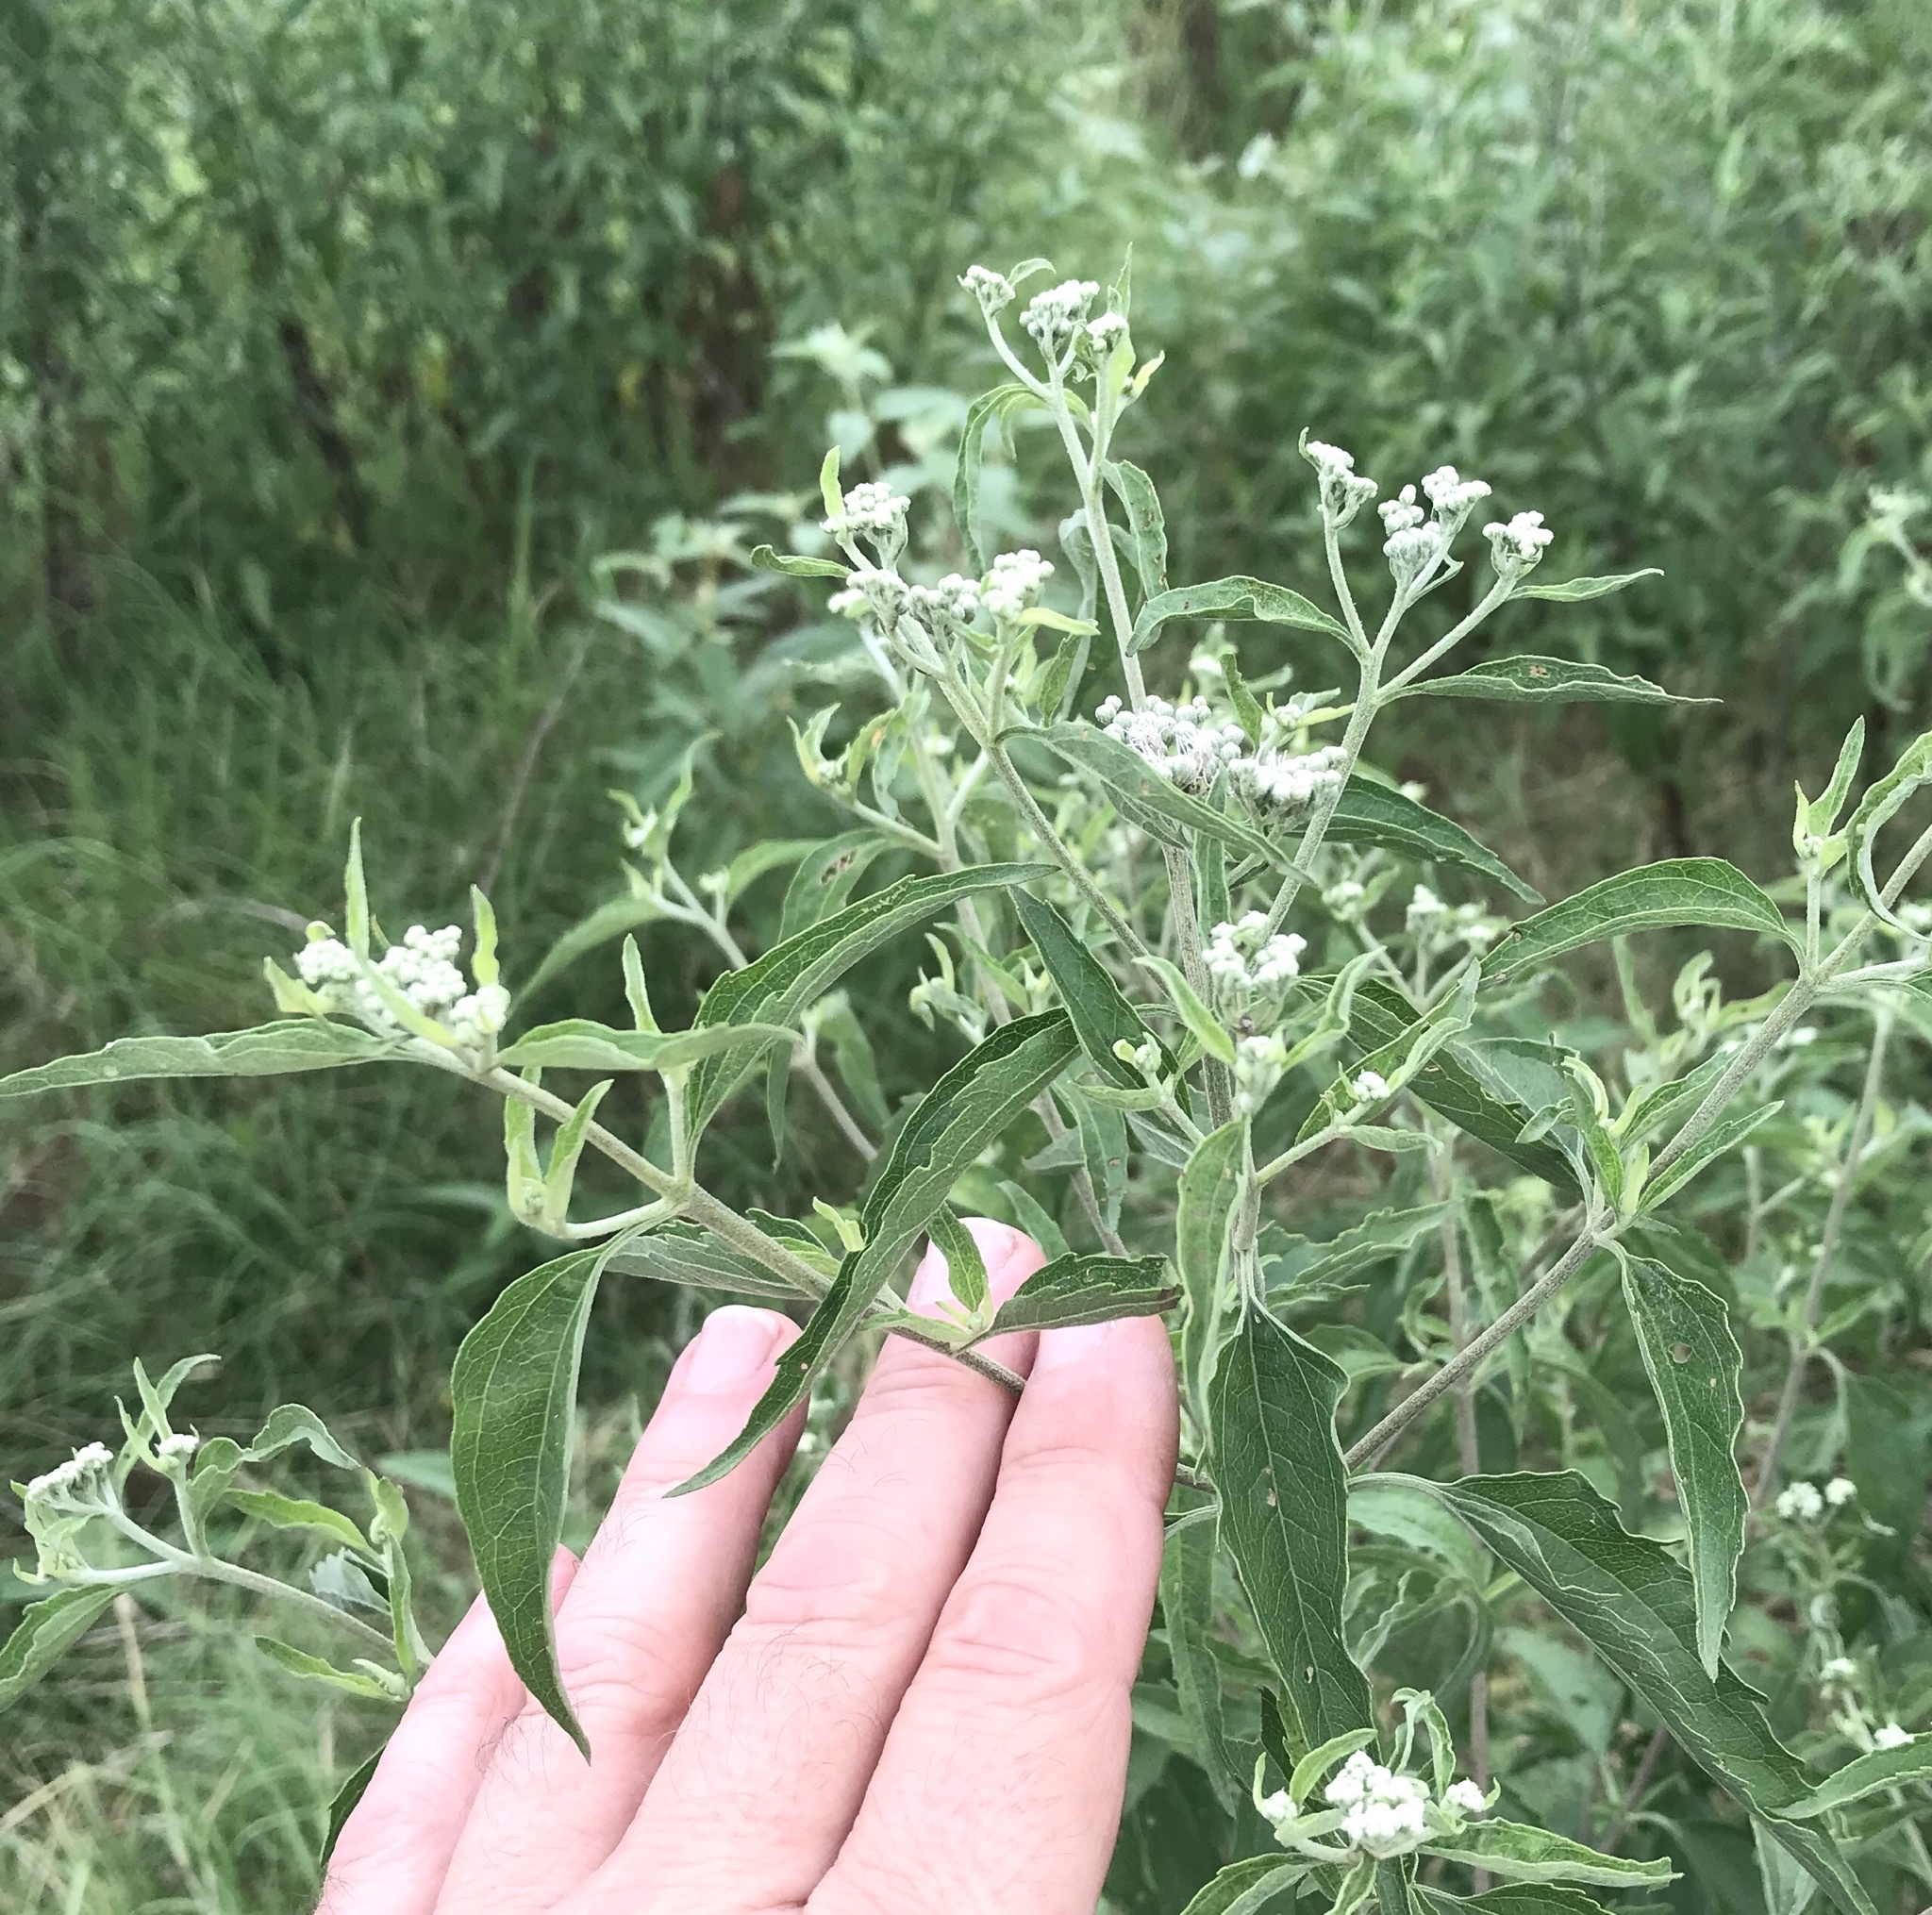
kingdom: Plantae
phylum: Tracheophyta
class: Magnoliopsida
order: Asterales
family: Asteraceae
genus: Eupatorium
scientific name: Eupatorium serotinum
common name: Late boneset
